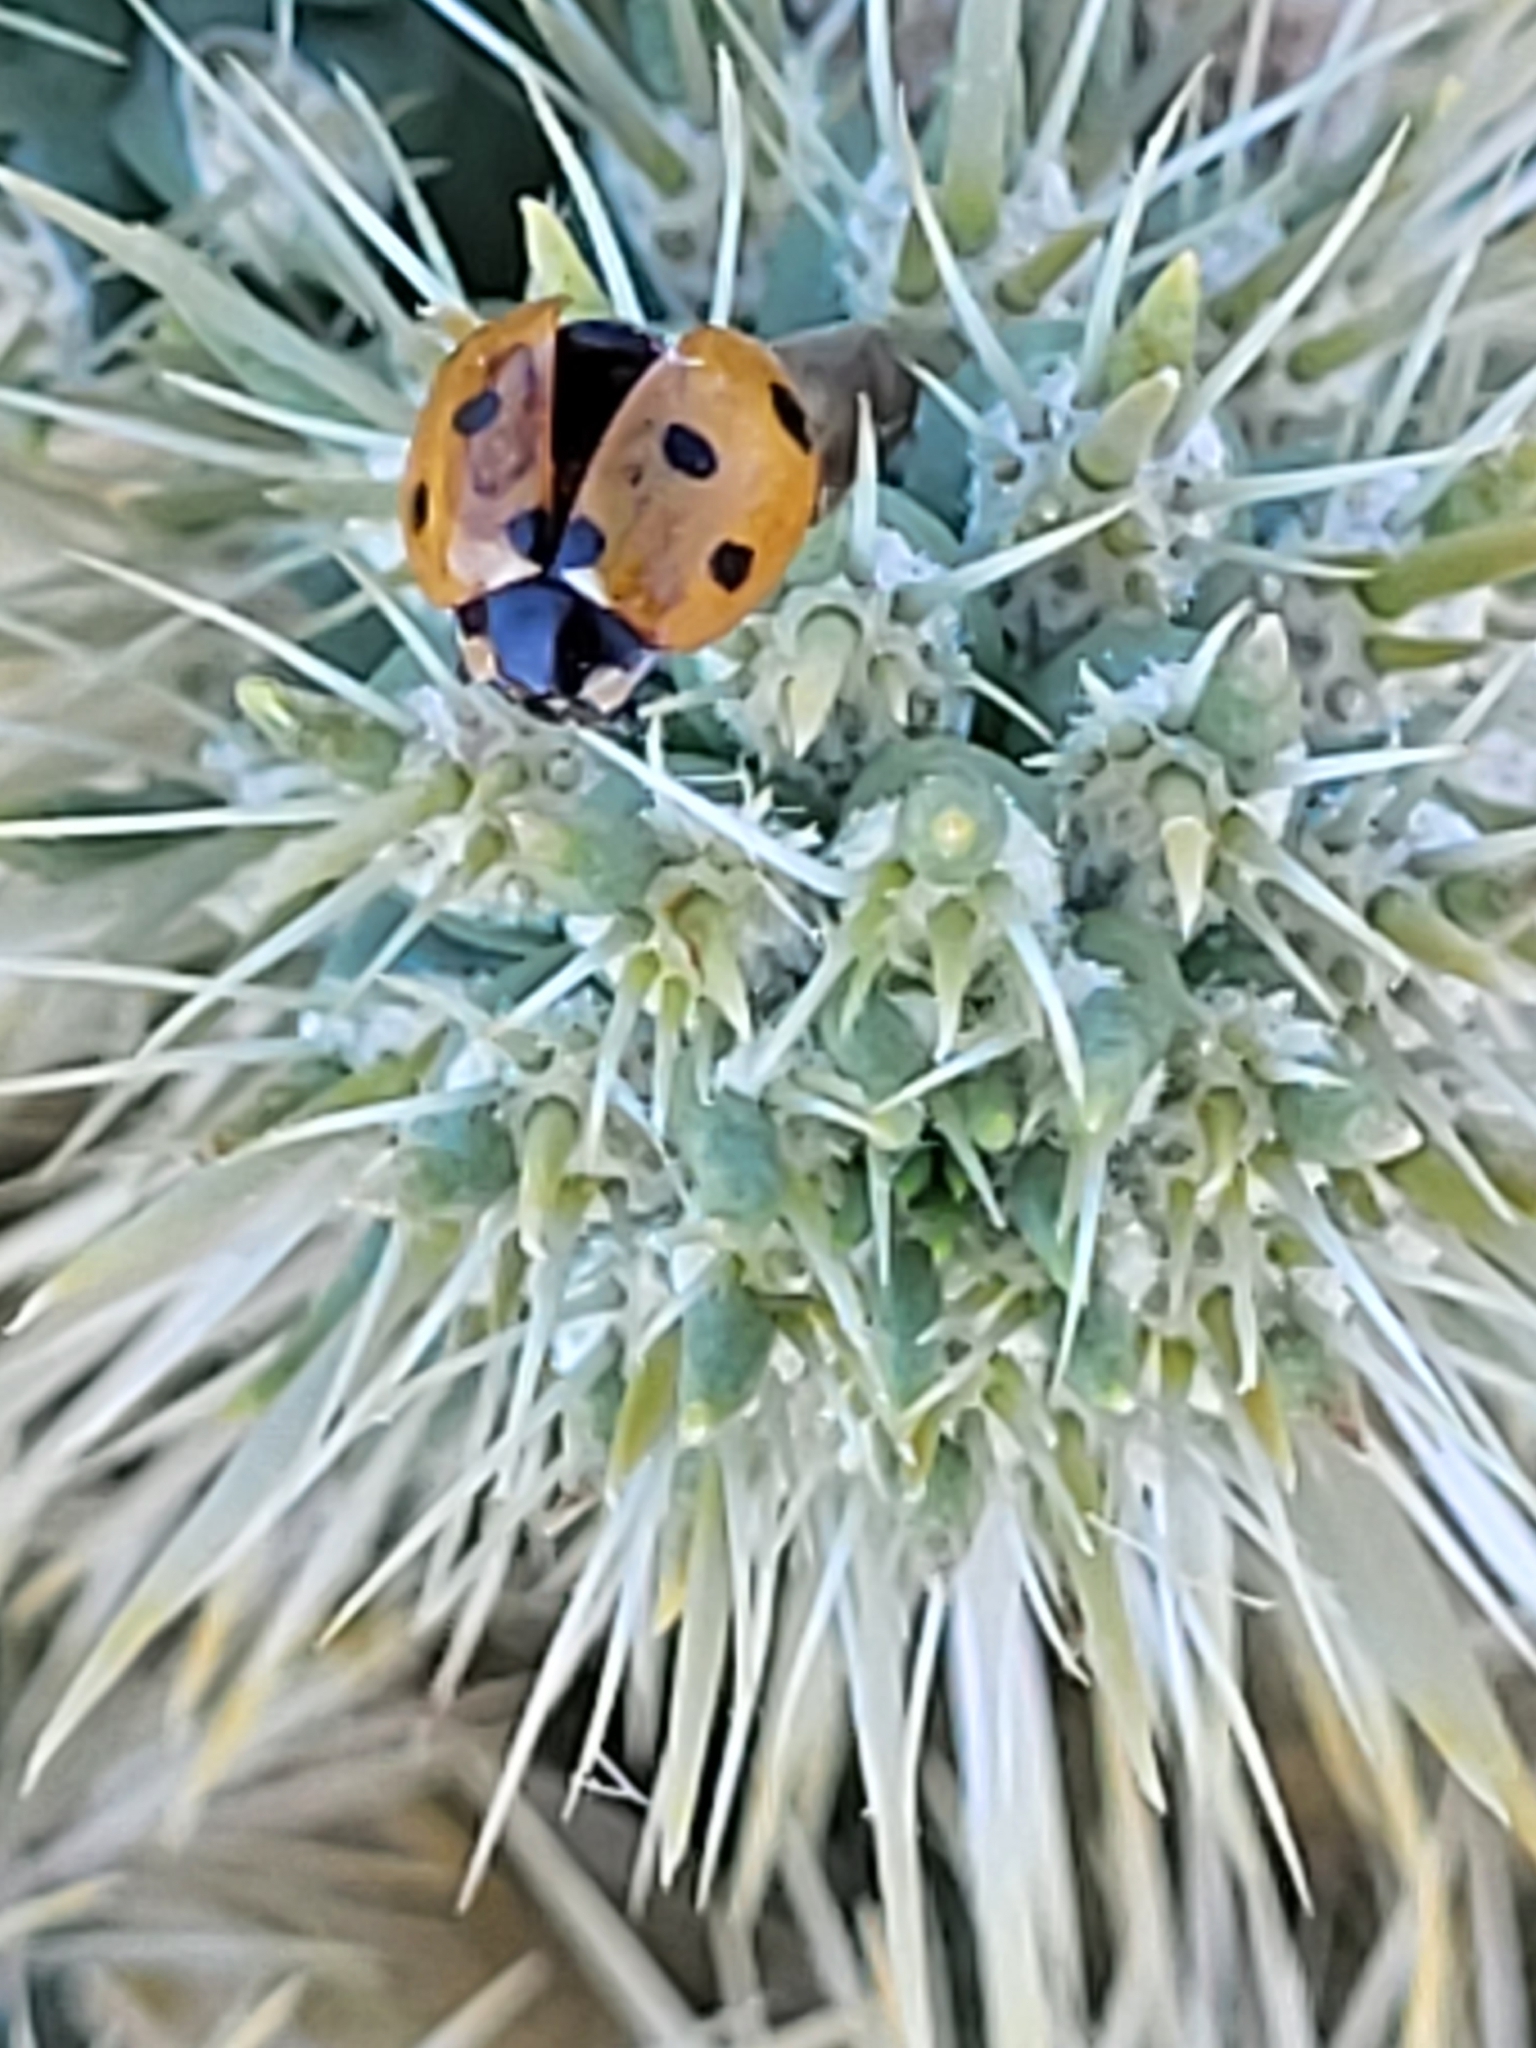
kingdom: Animalia
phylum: Arthropoda
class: Insecta
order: Coleoptera
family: Coccinellidae
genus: Coccinella
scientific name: Coccinella septempunctata
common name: Sevenspotted lady beetle
